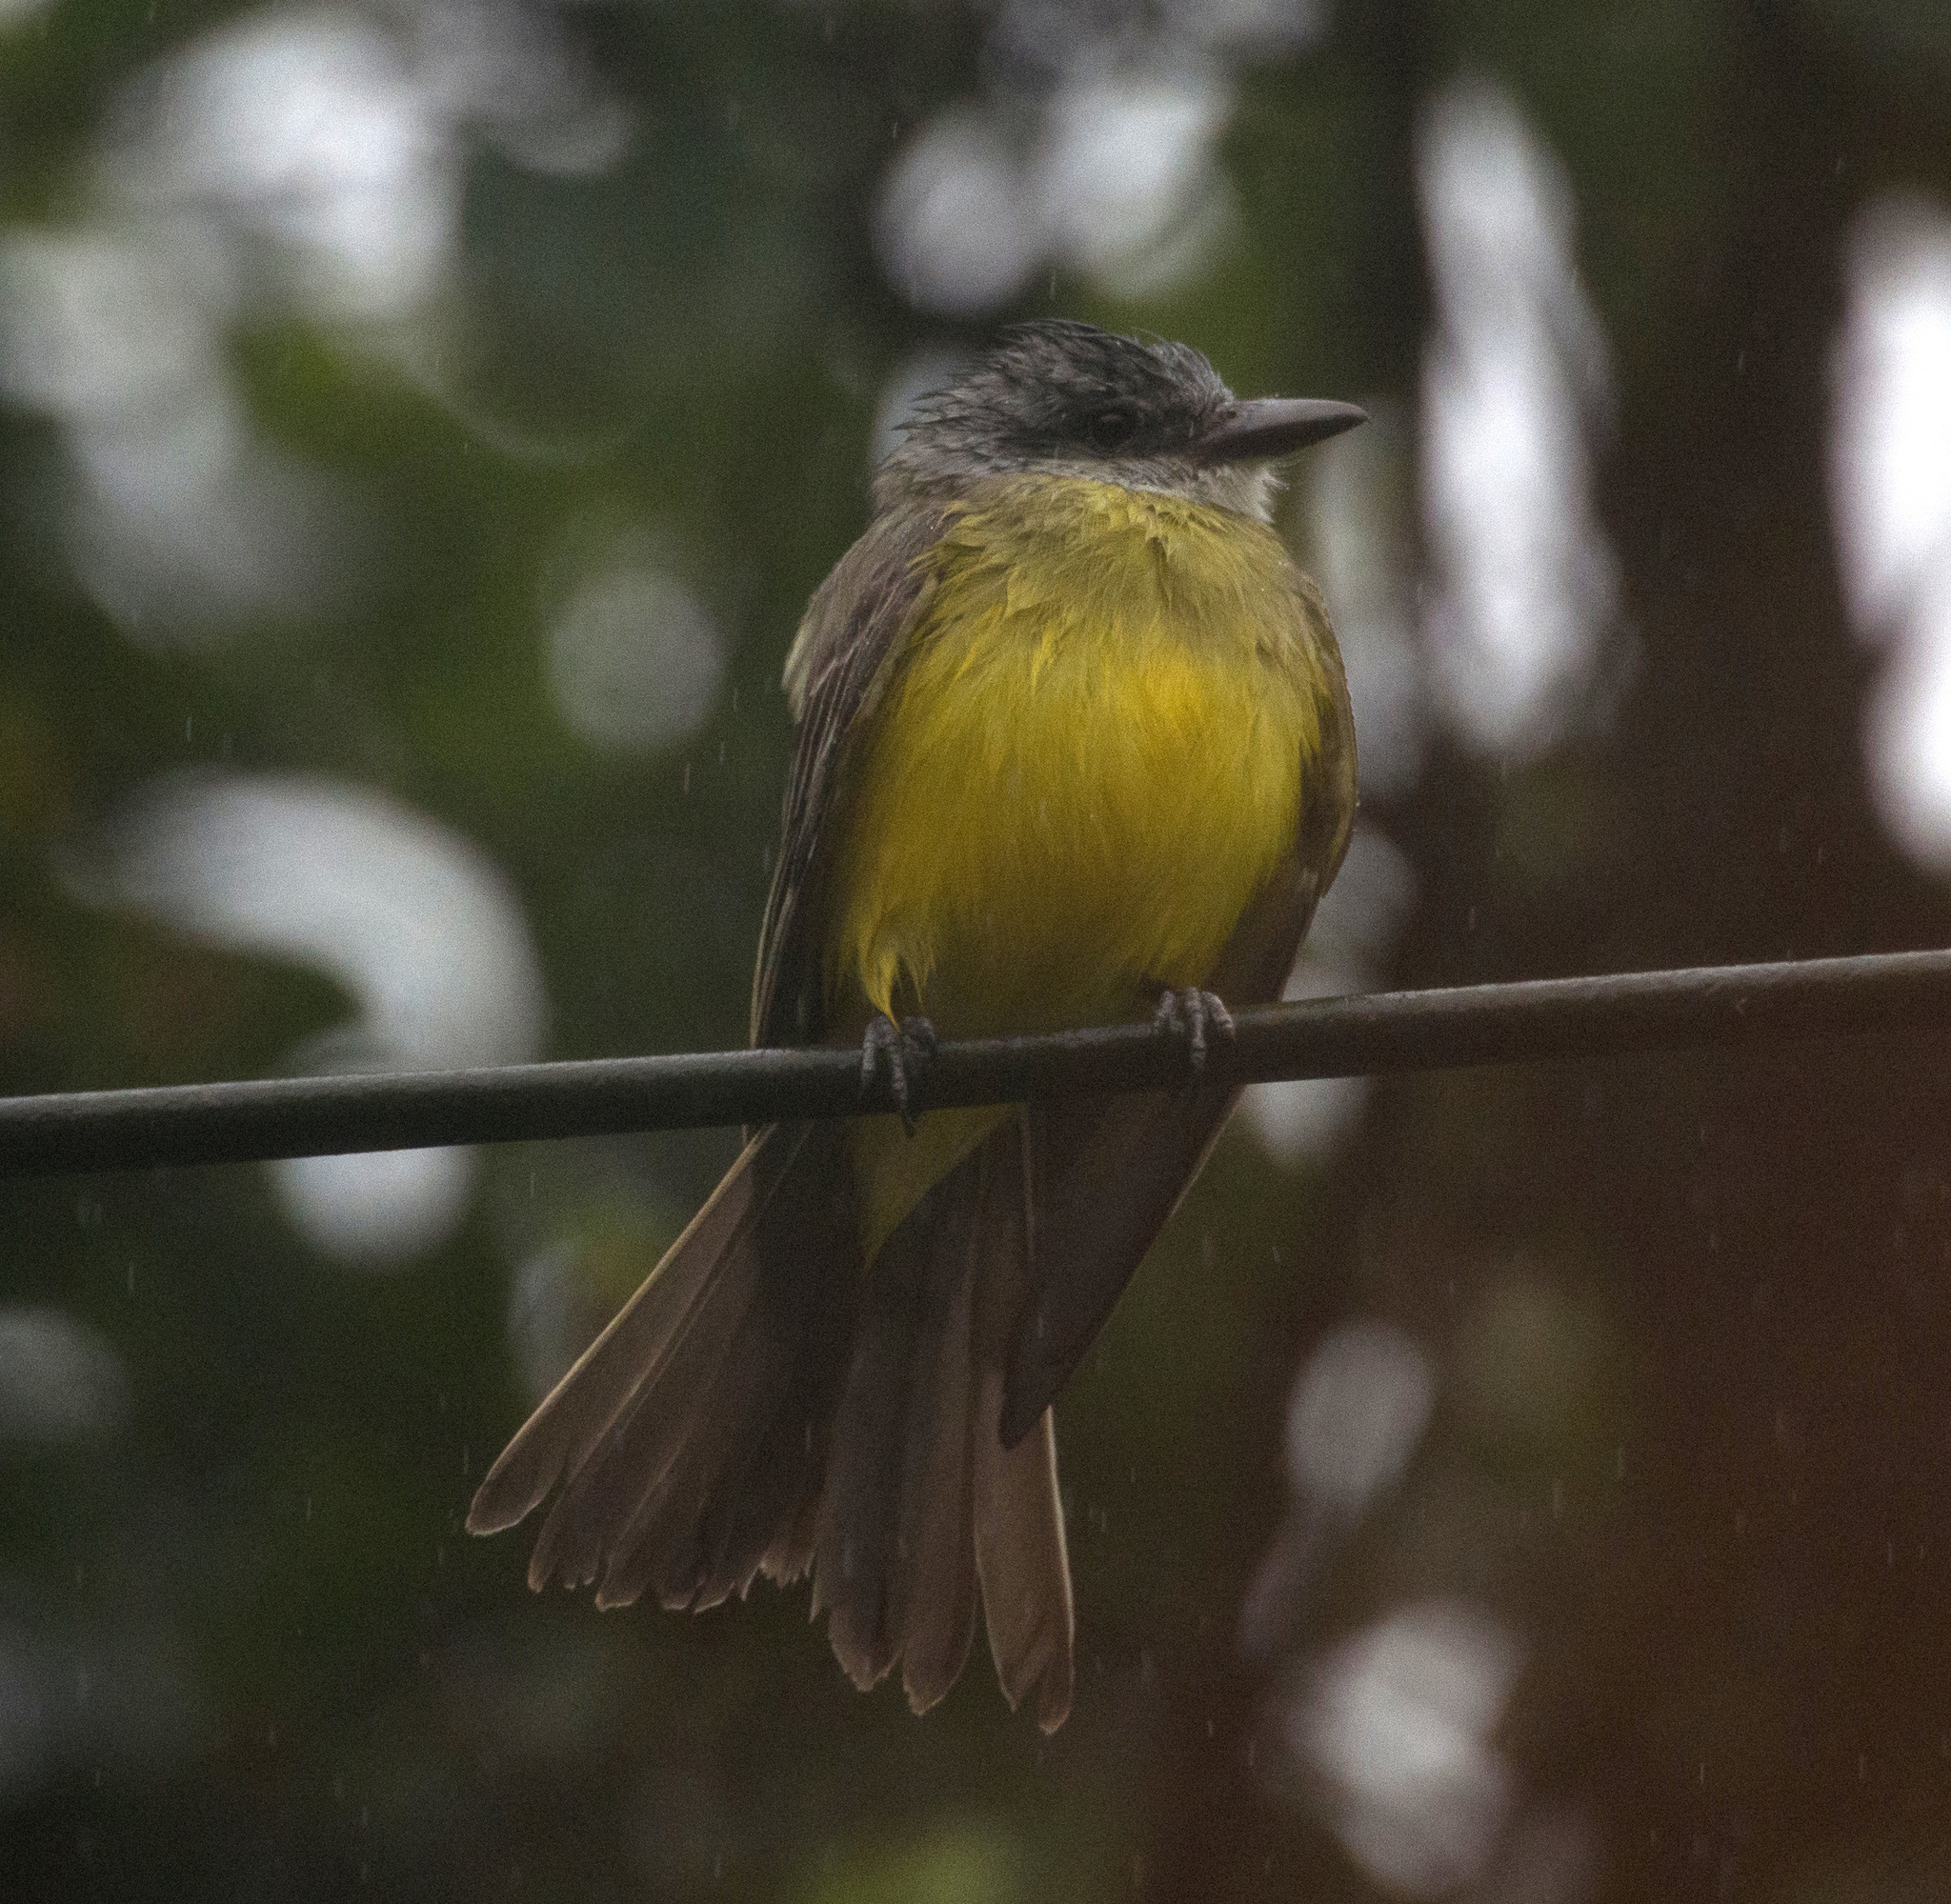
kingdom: Animalia
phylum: Chordata
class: Aves
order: Passeriformes
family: Tyrannidae
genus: Tyrannus
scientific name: Tyrannus melancholicus
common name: Tropical kingbird
